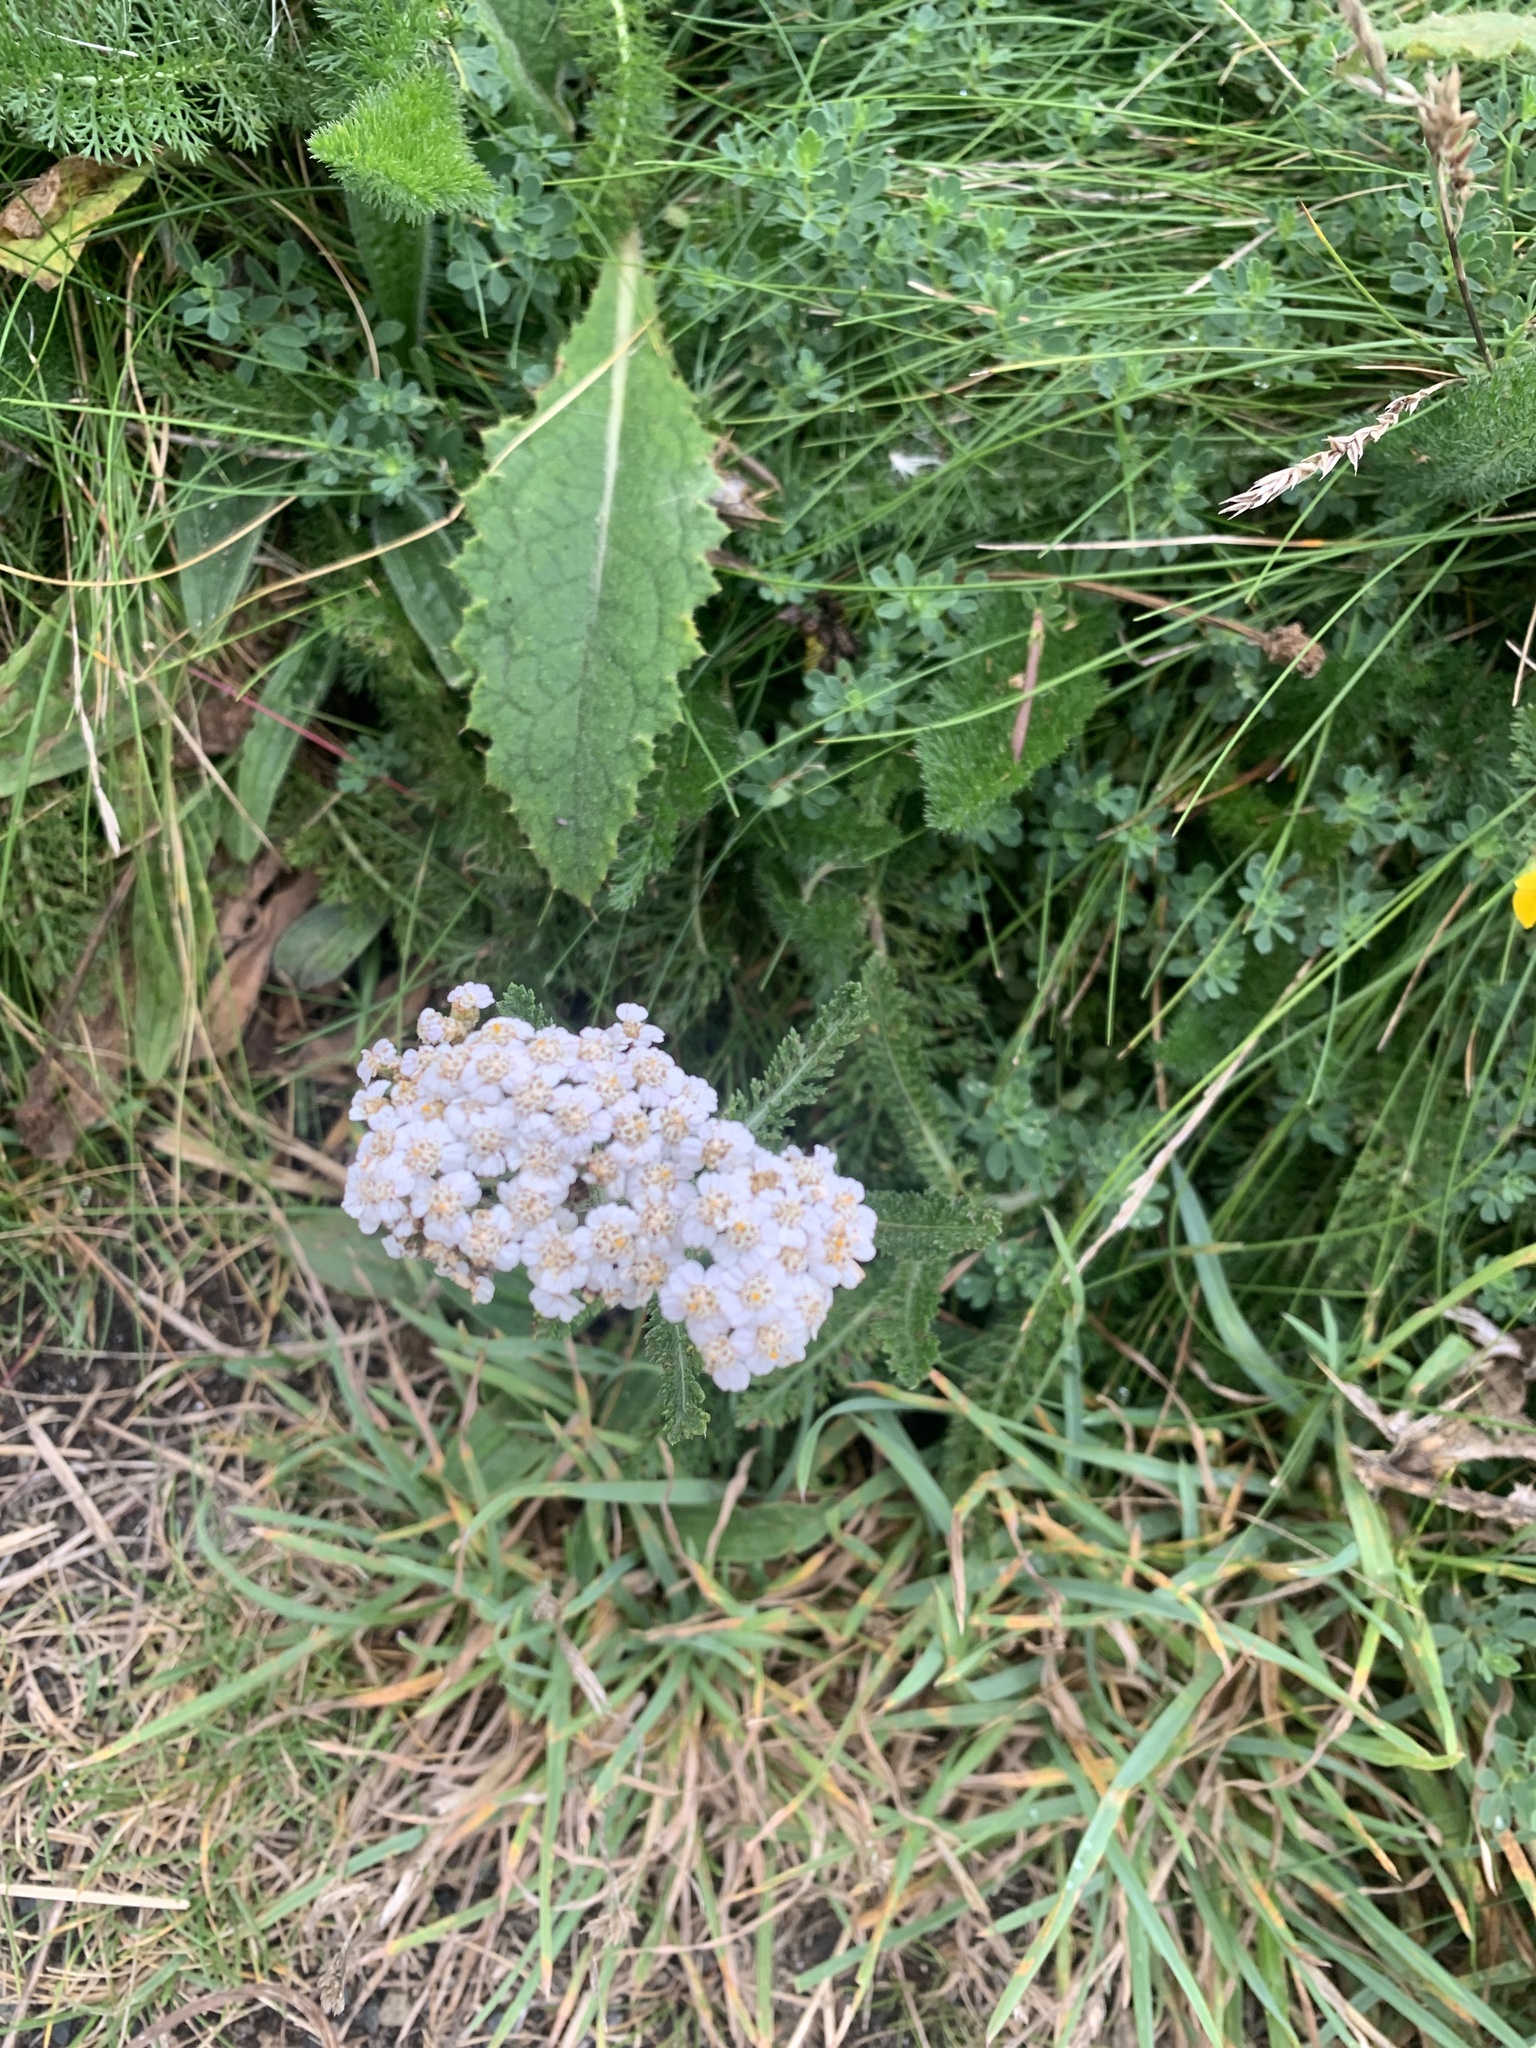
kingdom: Plantae
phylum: Tracheophyta
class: Magnoliopsida
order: Asterales
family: Asteraceae
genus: Achillea
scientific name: Achillea millefolium
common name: Yarrow
